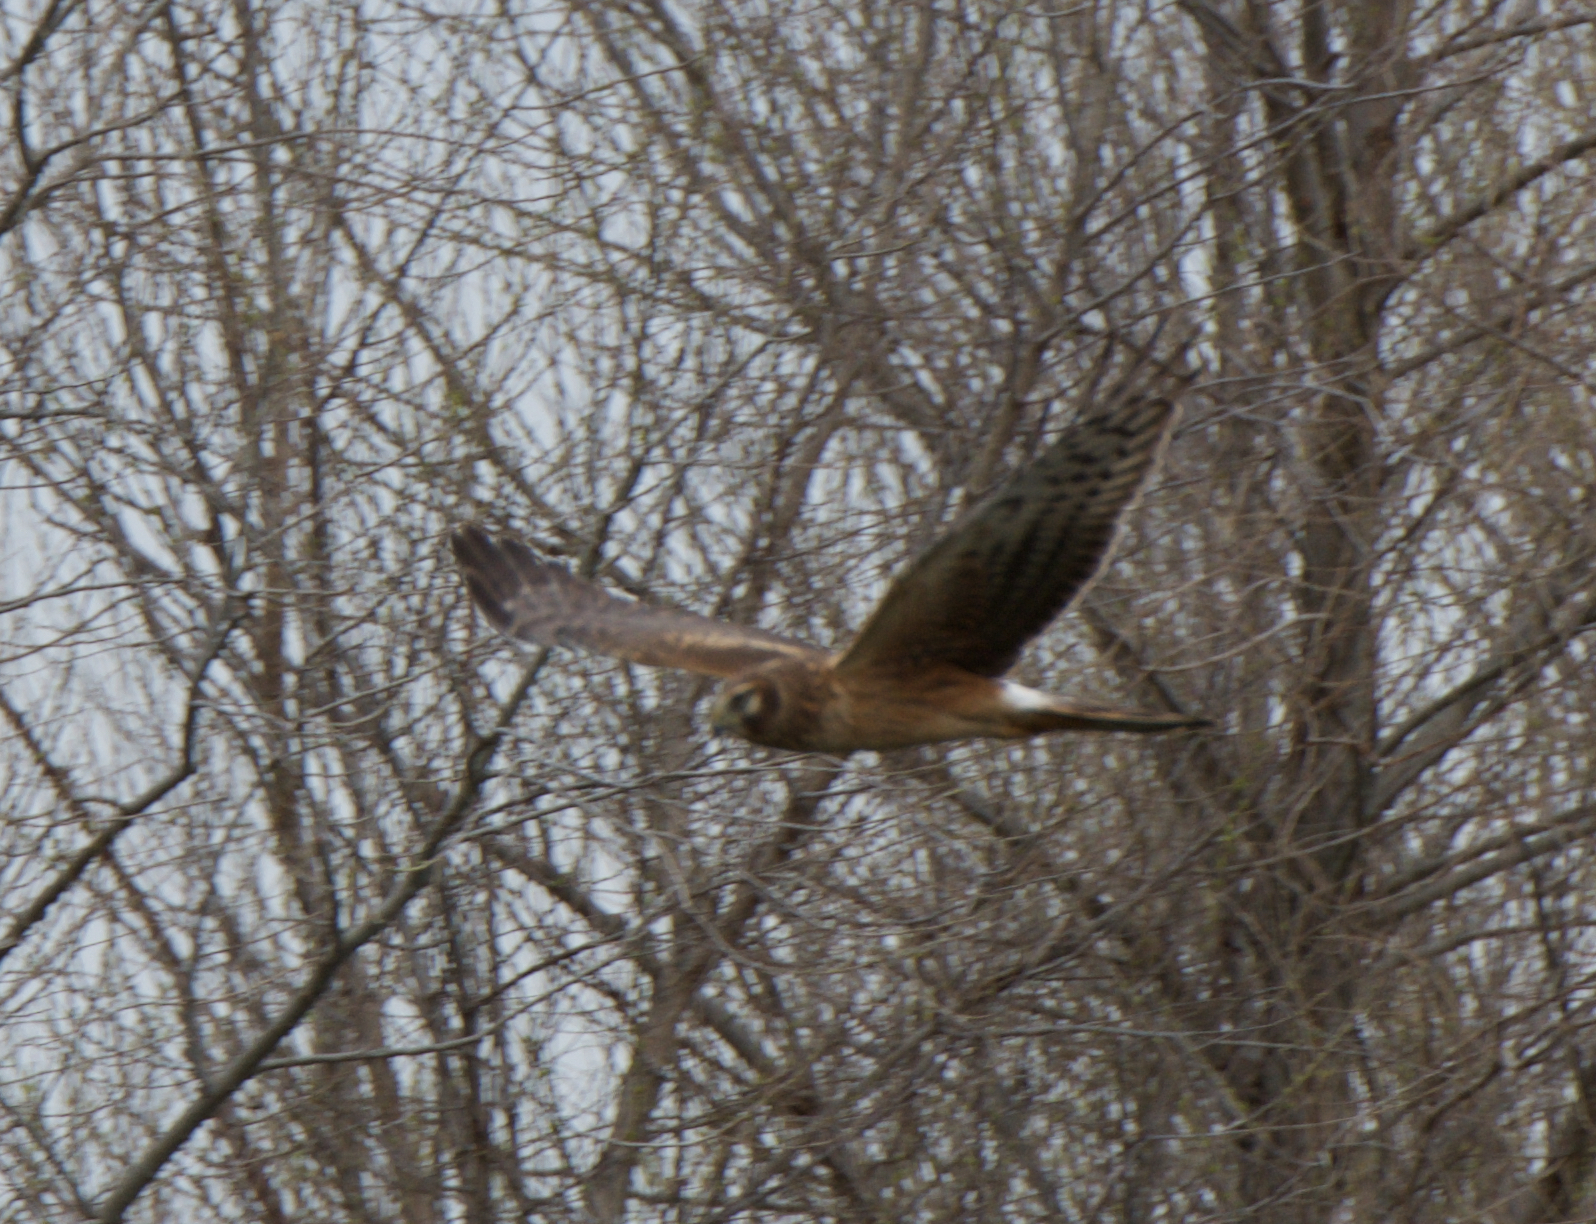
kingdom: Animalia
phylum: Chordata
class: Aves
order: Accipitriformes
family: Accipitridae
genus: Circus
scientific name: Circus cyaneus
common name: Hen harrier
